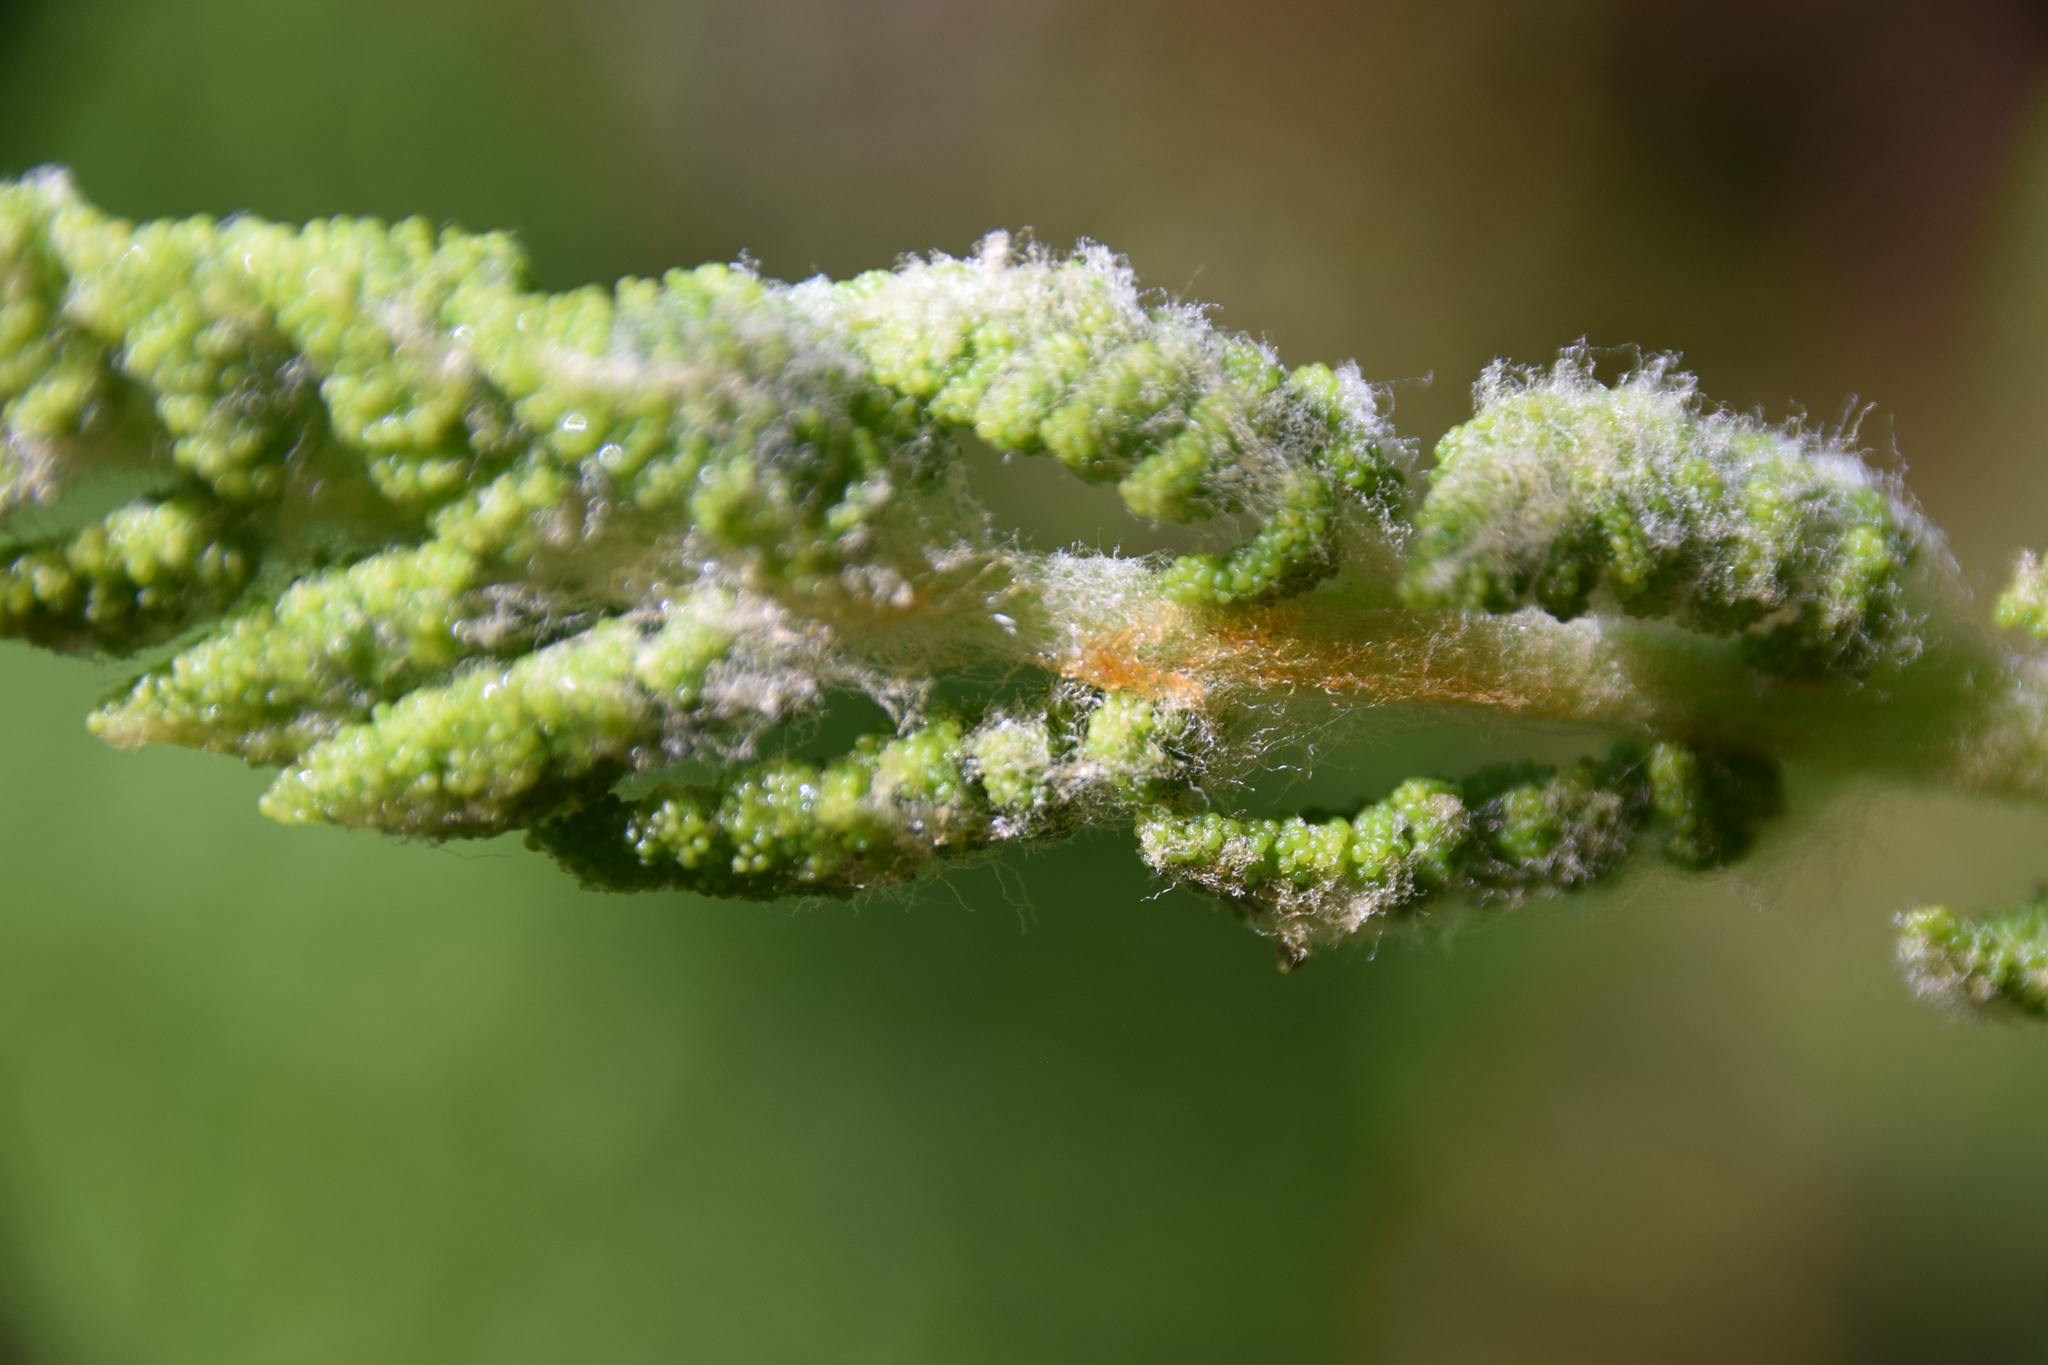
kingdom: Plantae
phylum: Tracheophyta
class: Polypodiopsida
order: Osmundales
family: Osmundaceae
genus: Osmundastrum
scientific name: Osmundastrum cinnamomeum
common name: Cinnamon fern
